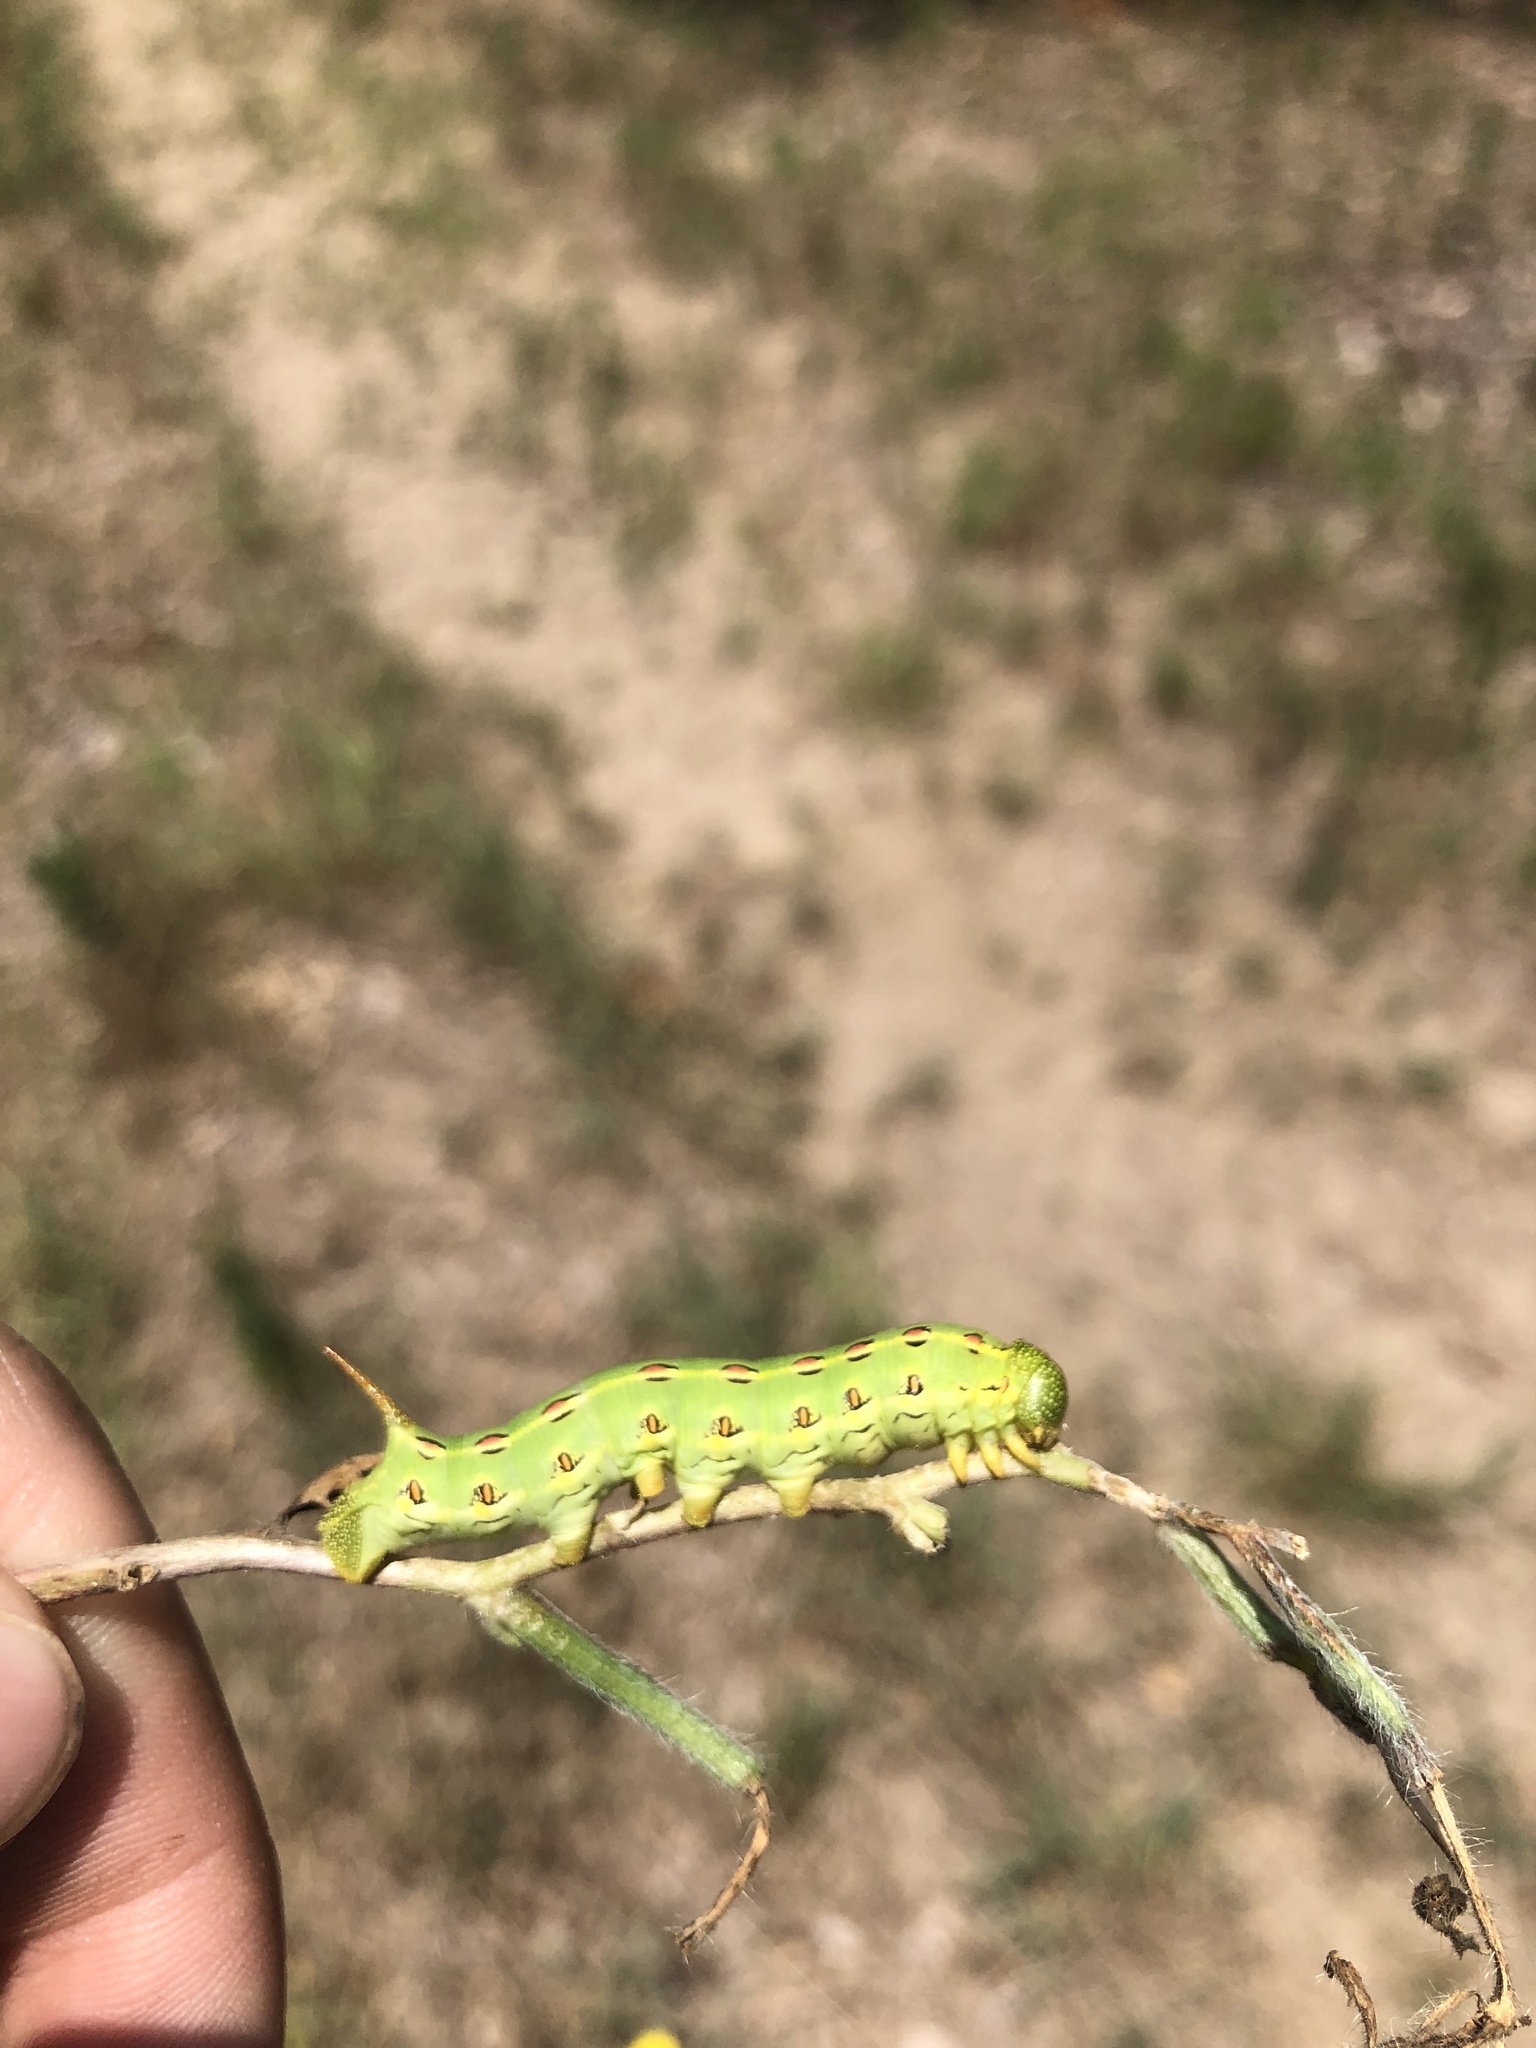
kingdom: Animalia
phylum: Arthropoda
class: Insecta
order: Lepidoptera
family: Sphingidae
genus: Hyles
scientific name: Hyles lineata
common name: White-lined sphinx
